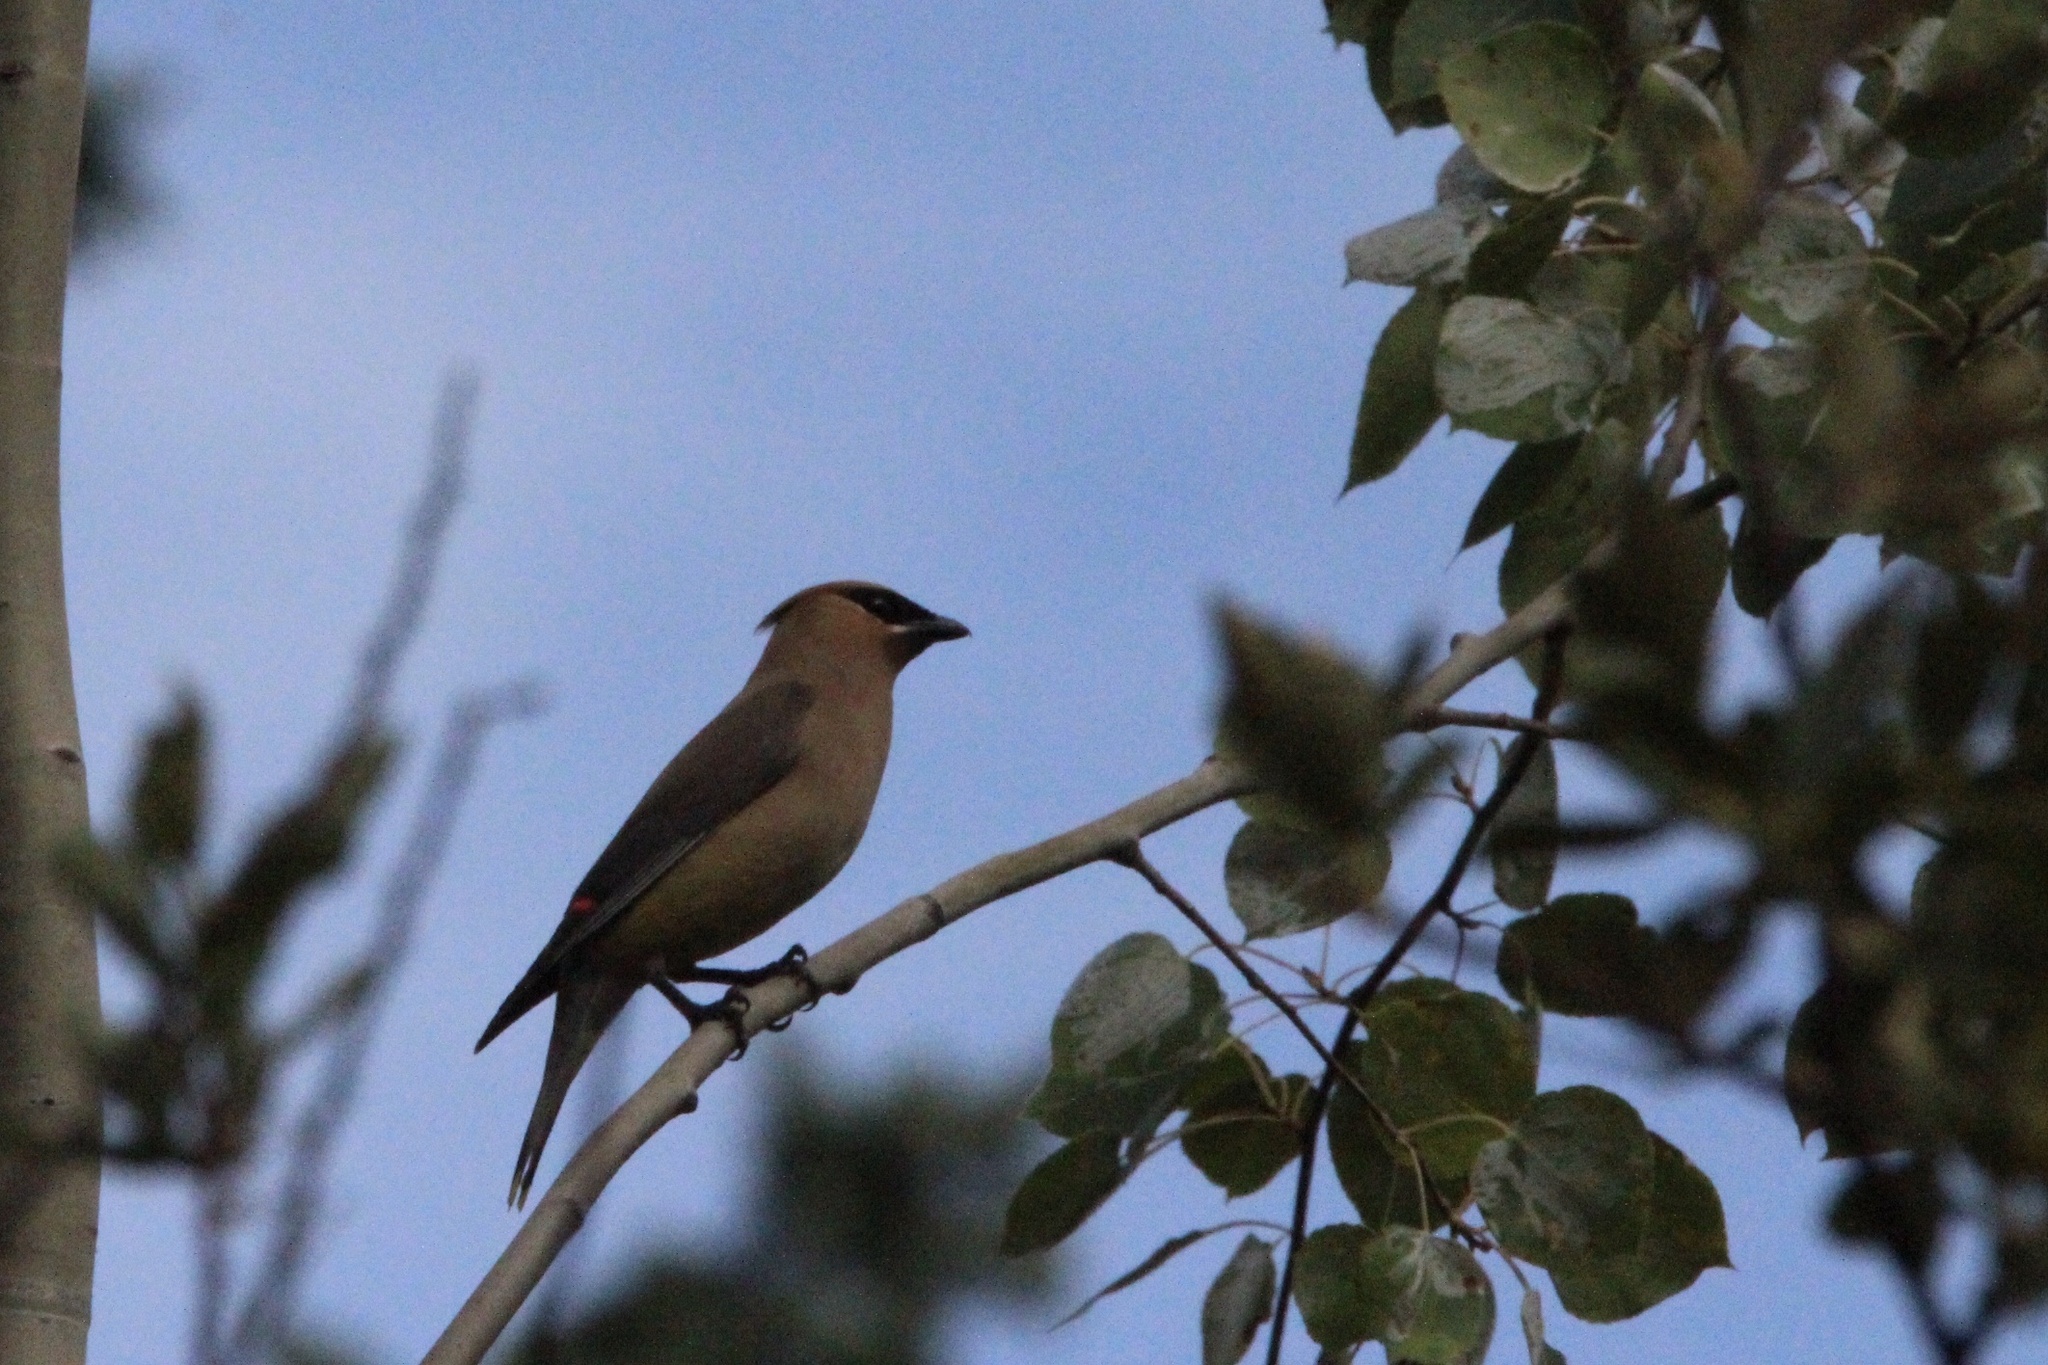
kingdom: Animalia
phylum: Chordata
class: Aves
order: Passeriformes
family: Bombycillidae
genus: Bombycilla
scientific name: Bombycilla cedrorum
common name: Cedar waxwing
